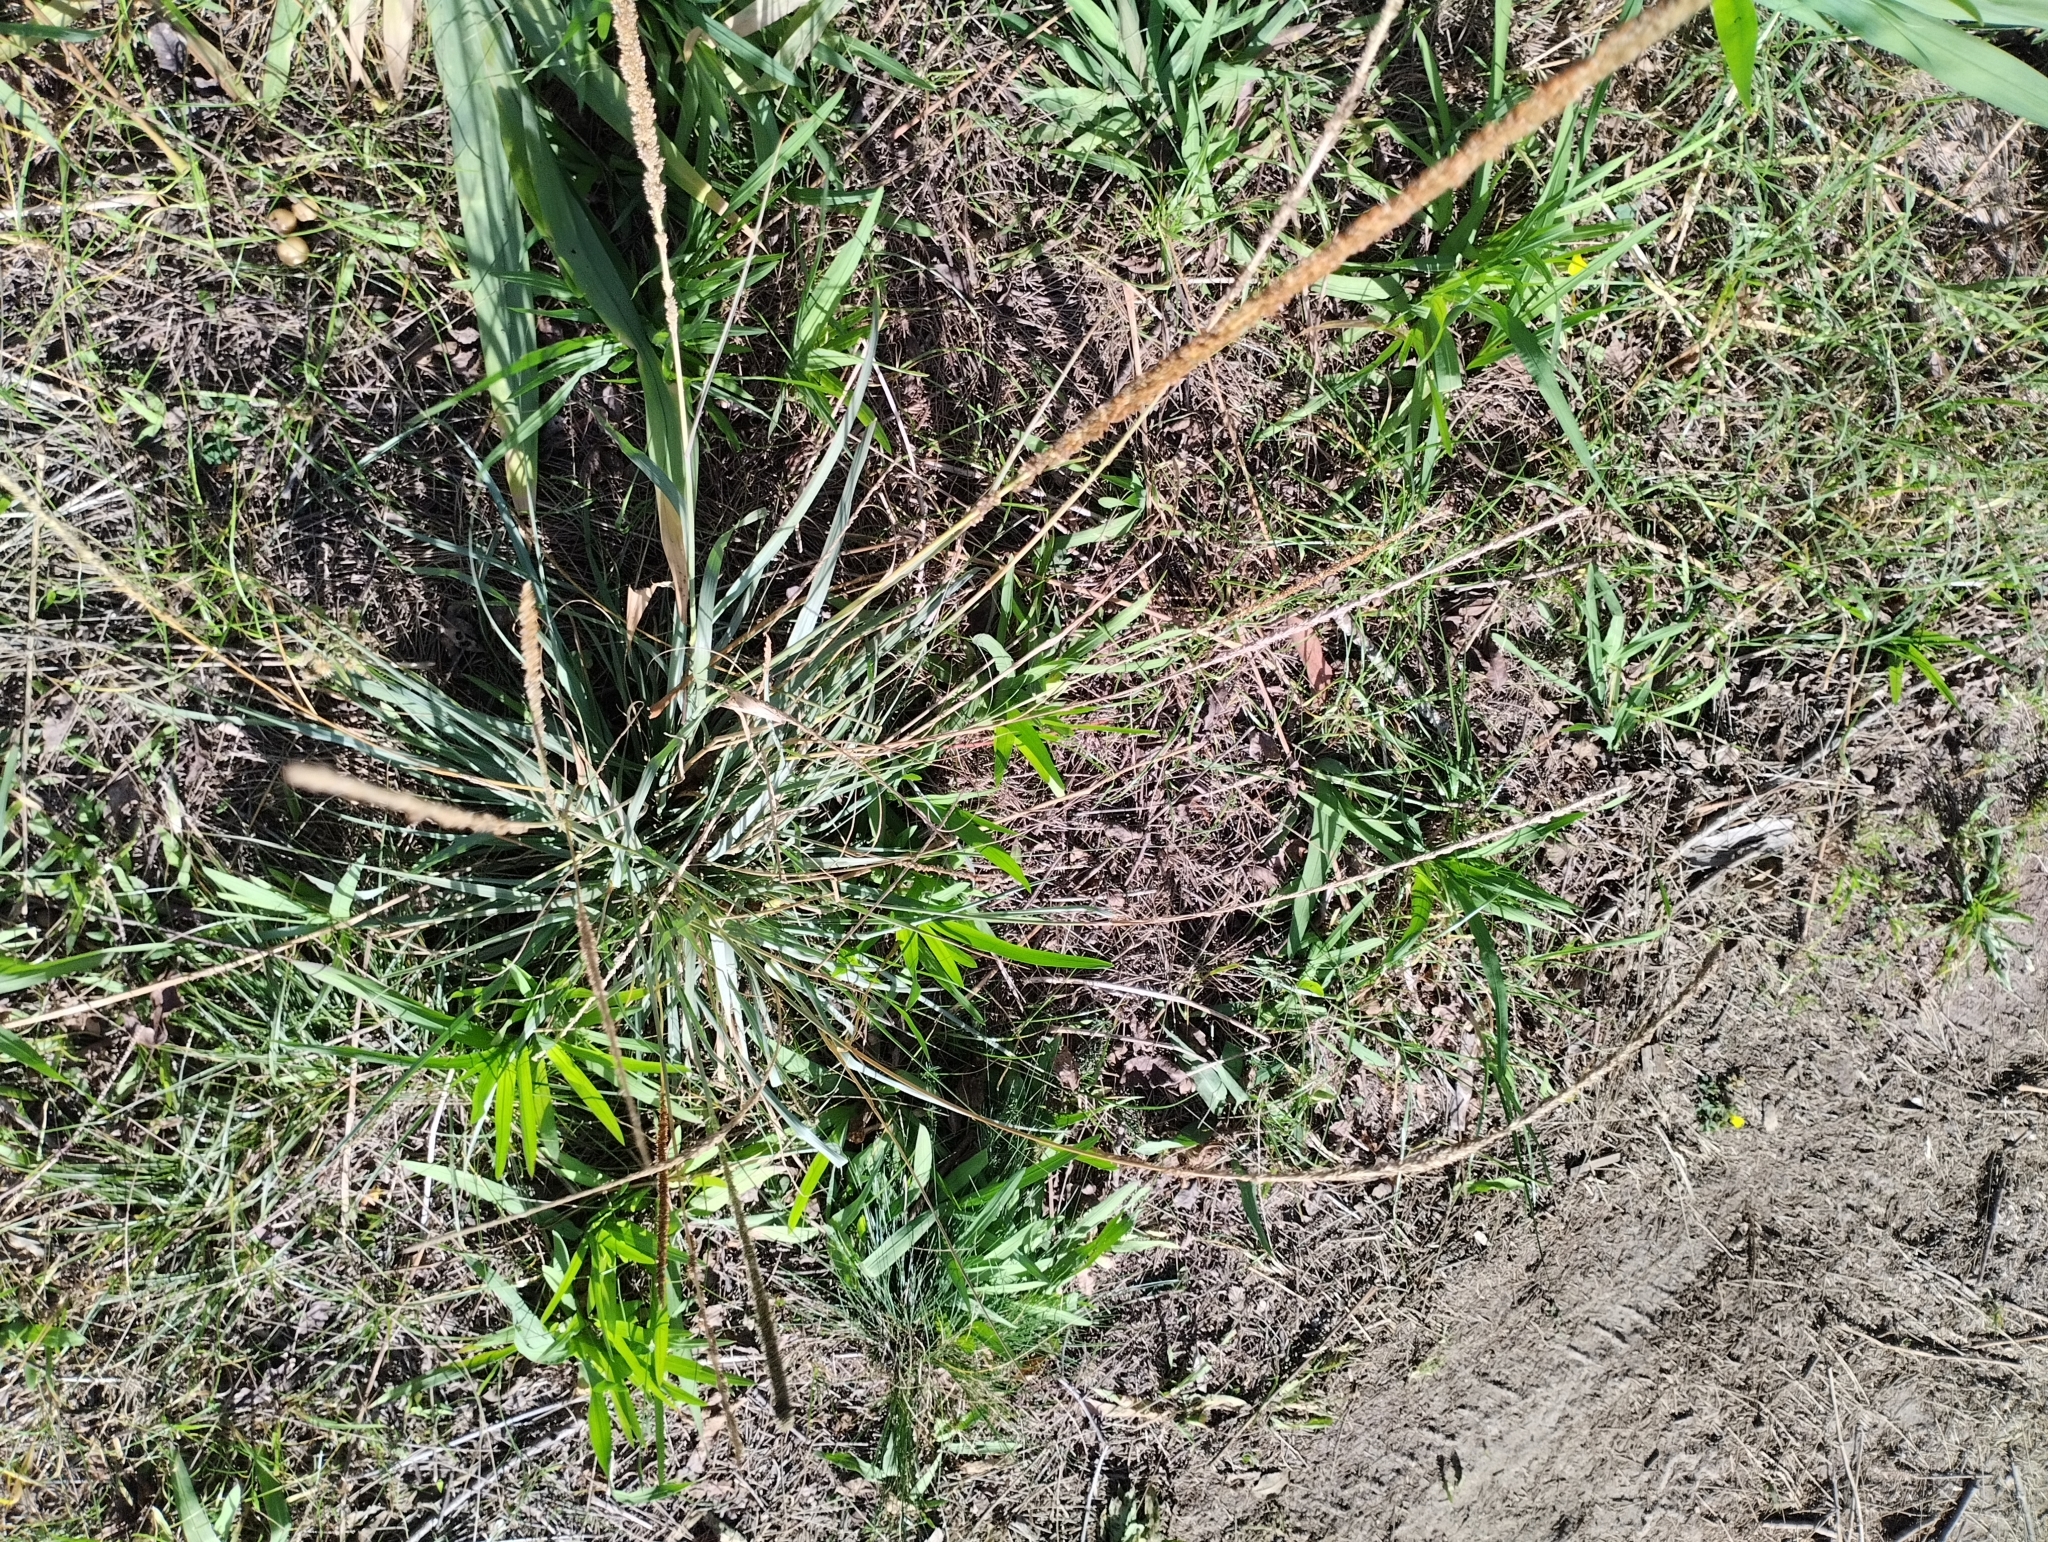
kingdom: Plantae
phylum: Tracheophyta
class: Liliopsida
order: Poales
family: Poaceae
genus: Sporobolus
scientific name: Sporobolus indicus
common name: Smut grass
